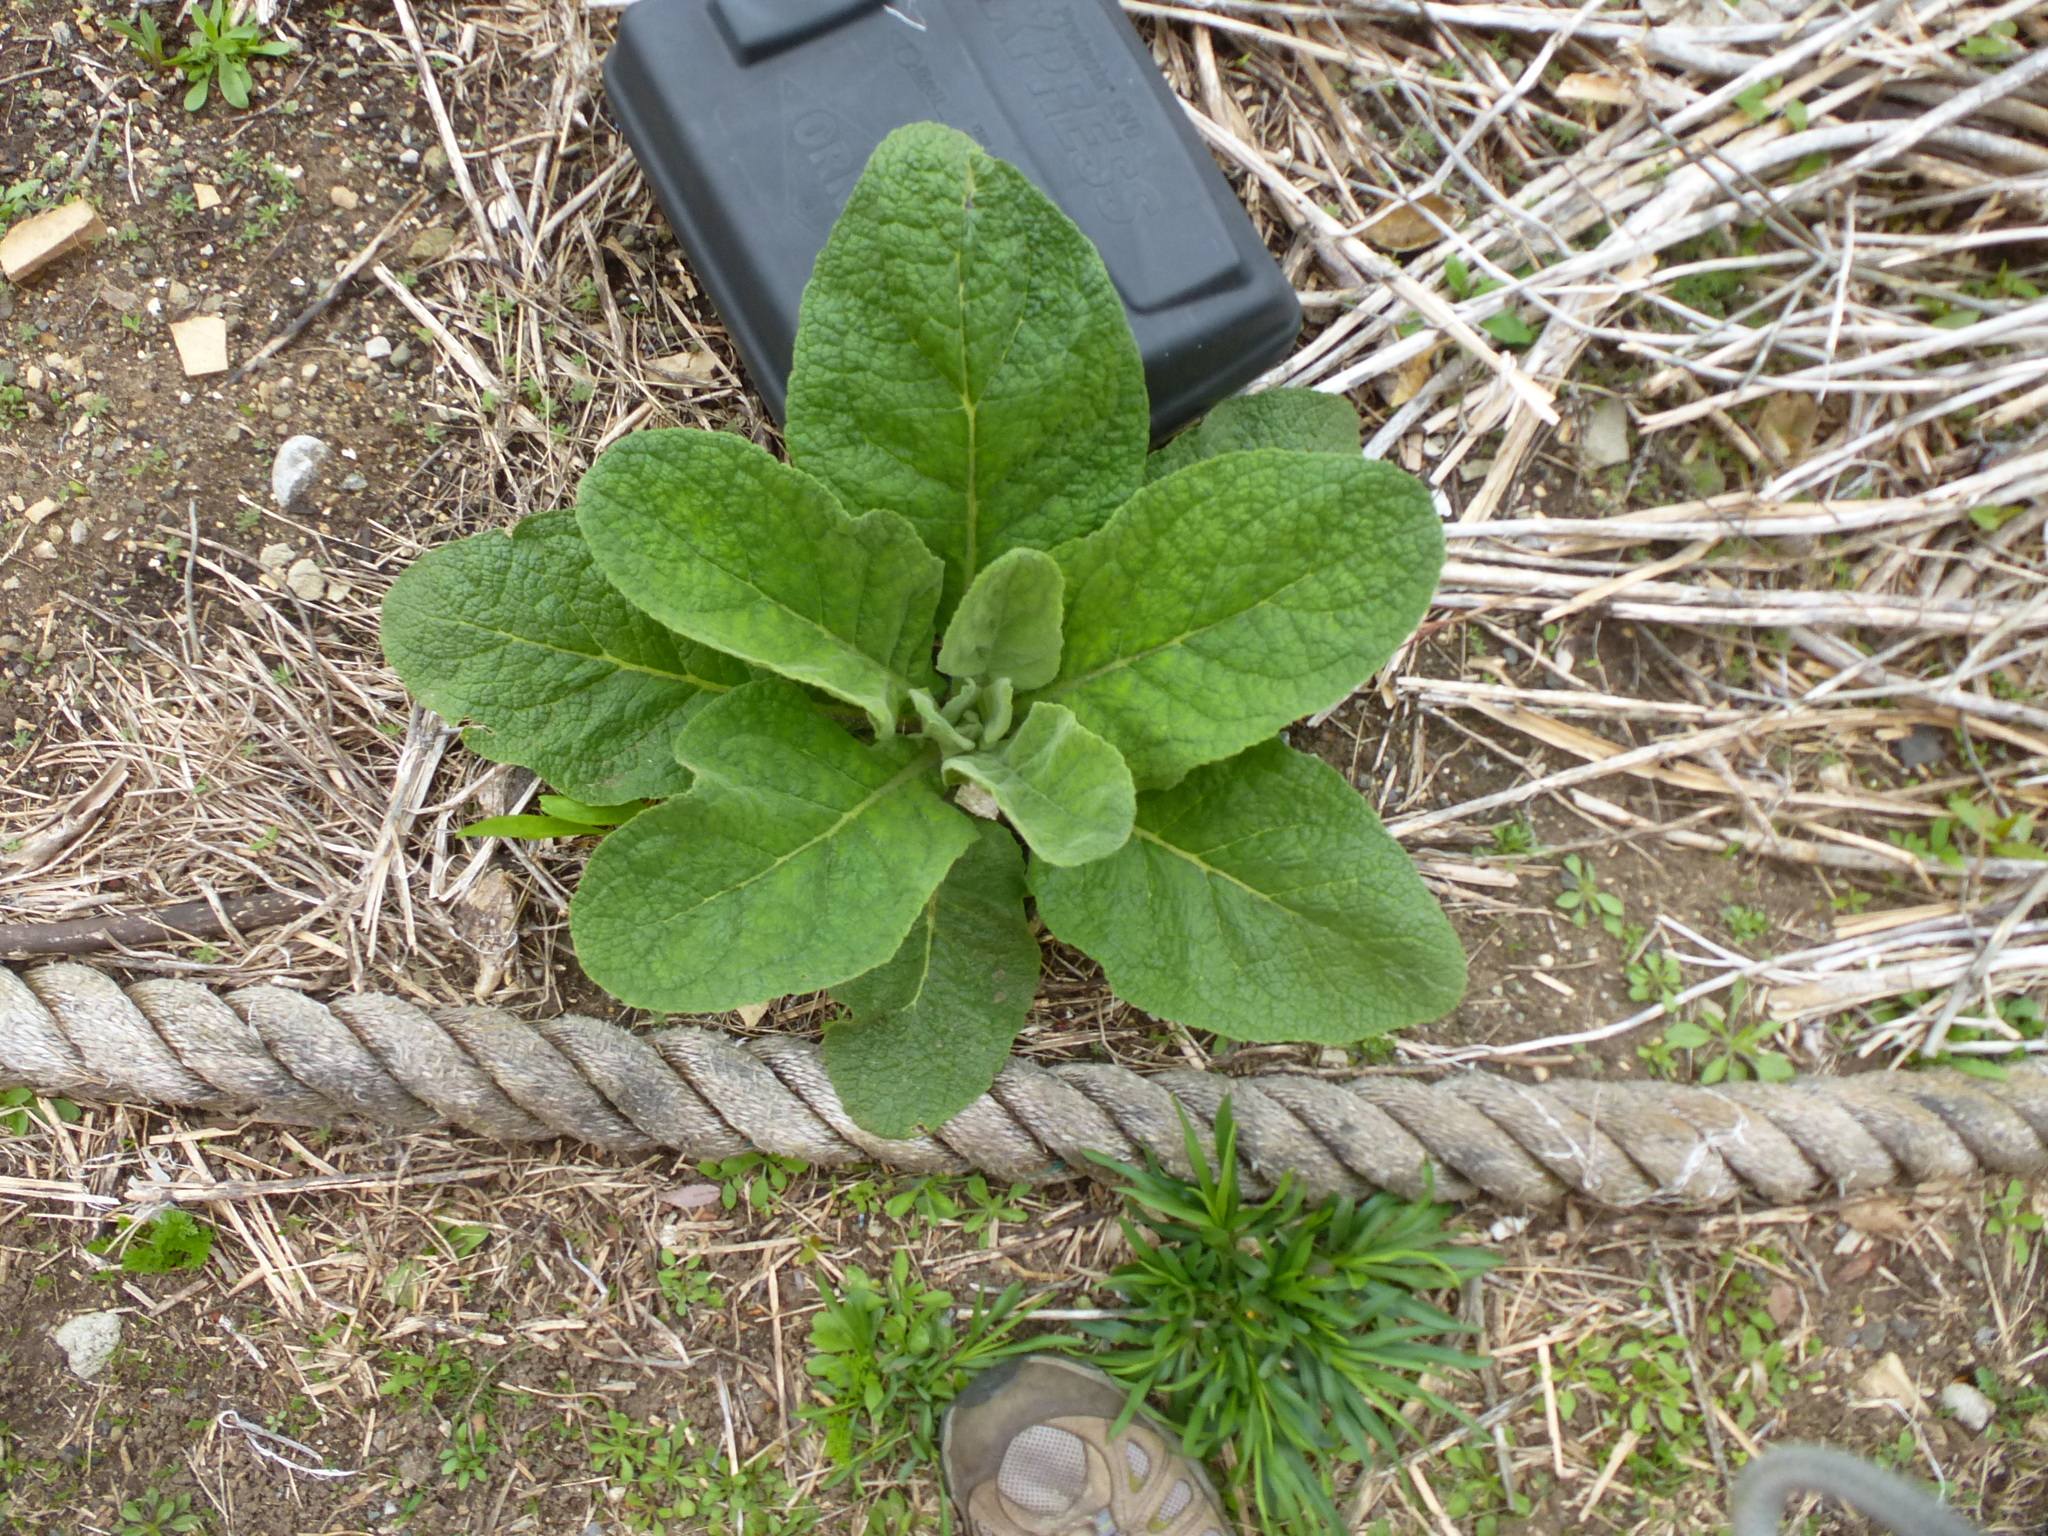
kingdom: Plantae
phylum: Tracheophyta
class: Magnoliopsida
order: Lamiales
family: Scrophulariaceae
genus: Verbascum
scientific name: Verbascum thapsus
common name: Common mullein
